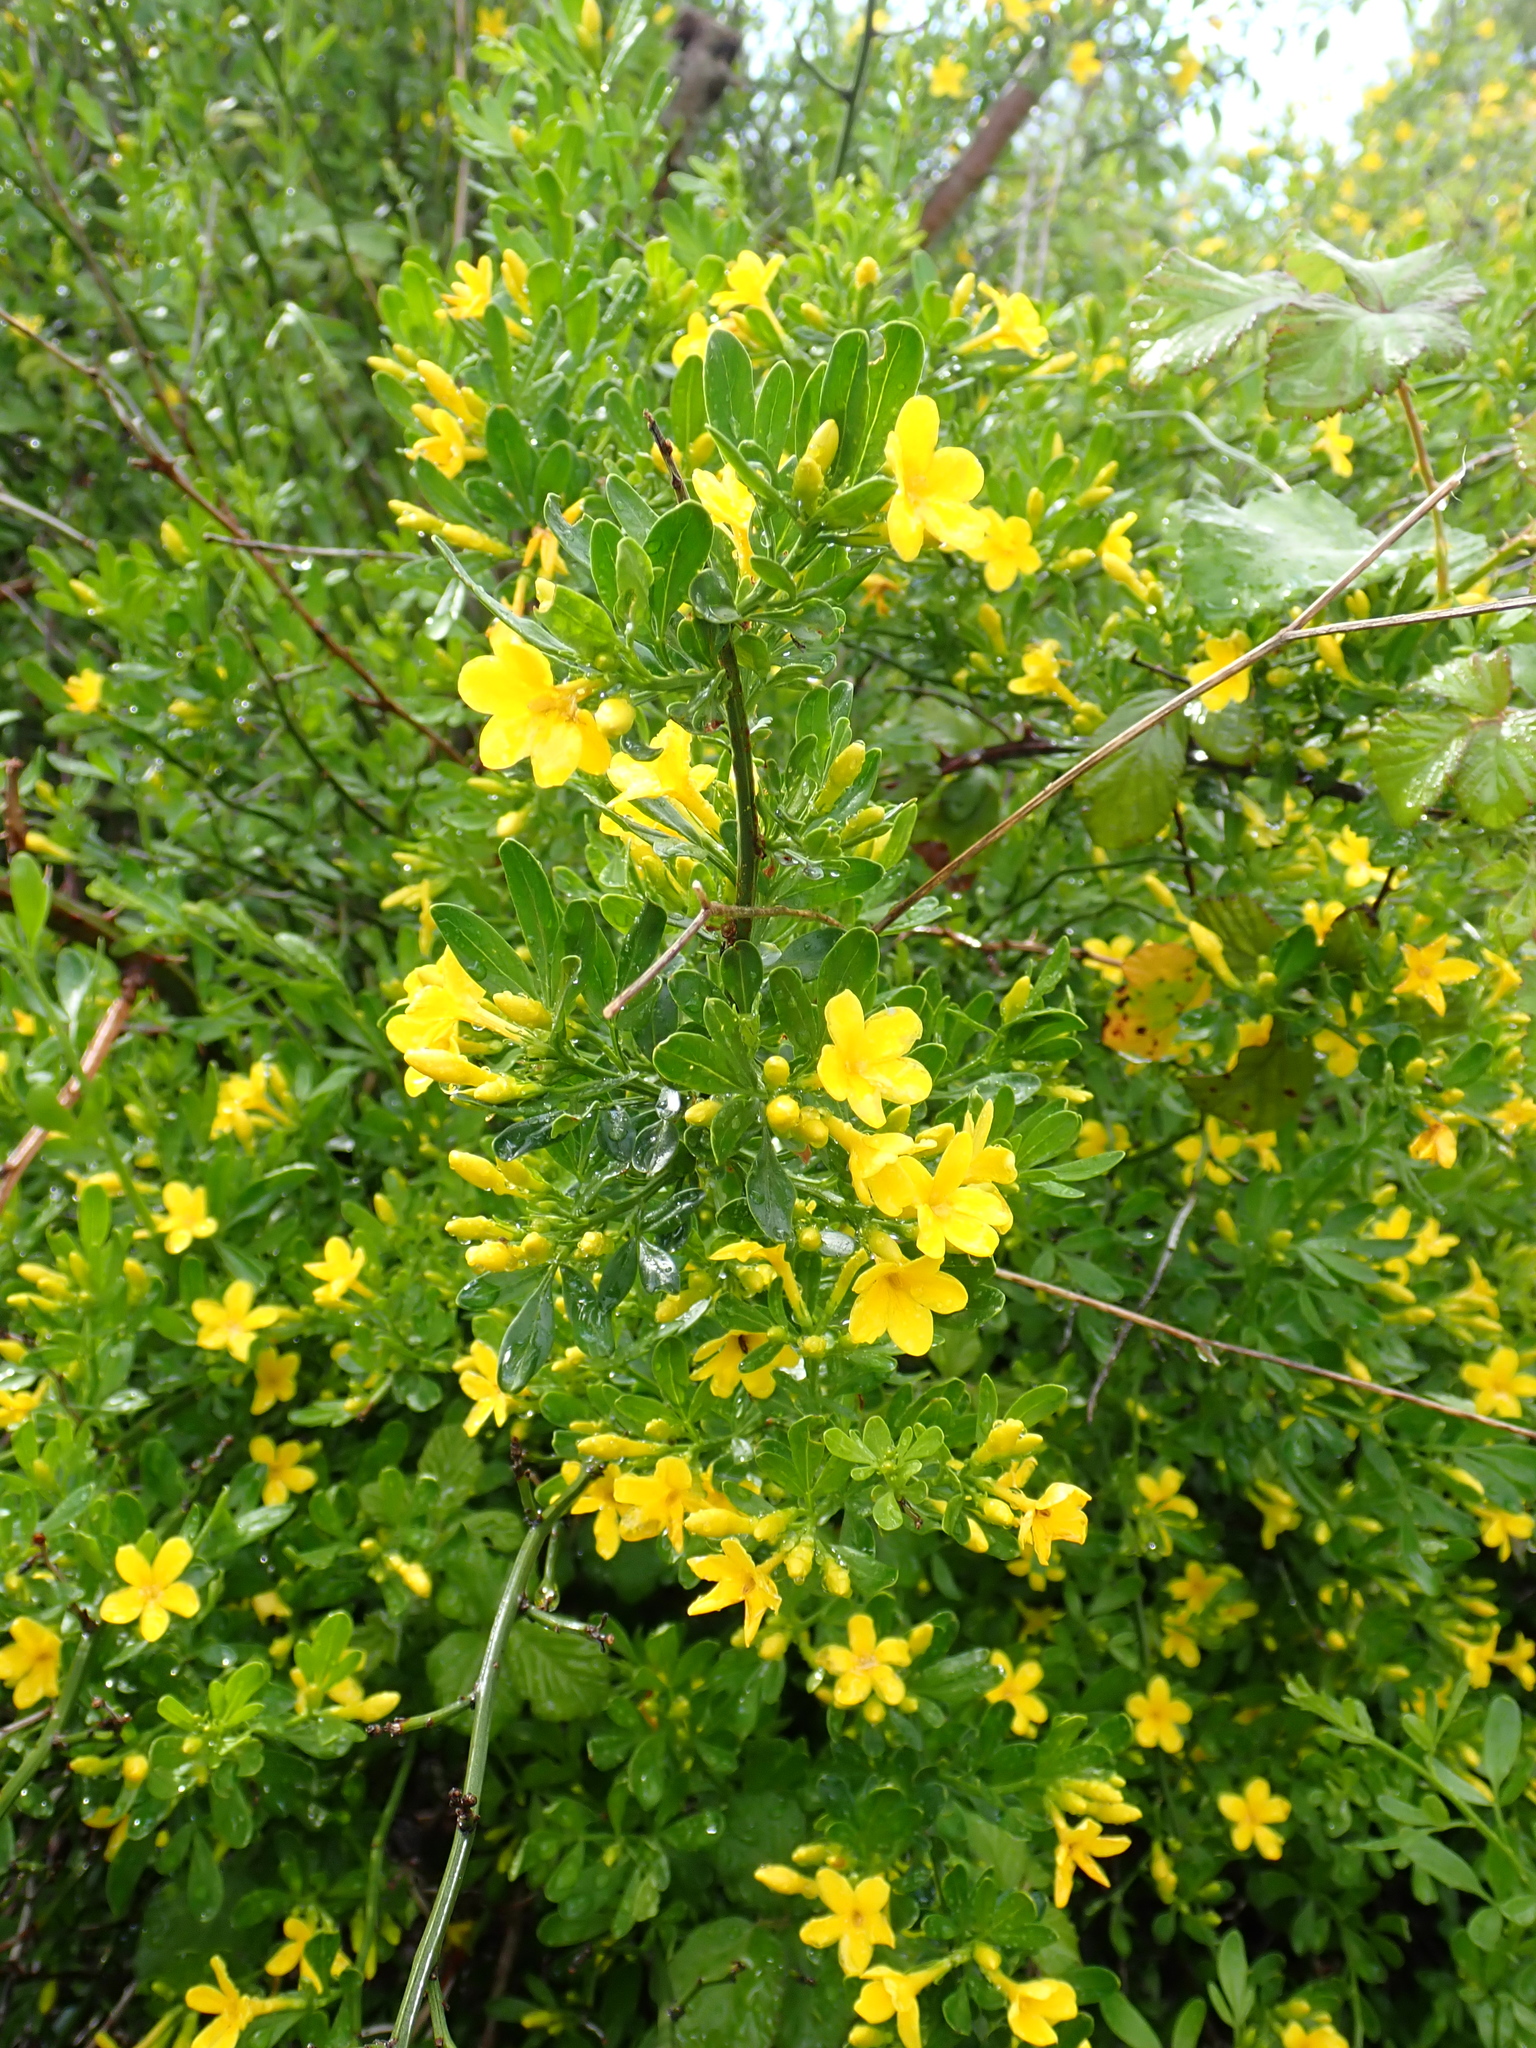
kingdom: Plantae
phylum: Tracheophyta
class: Magnoliopsida
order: Lamiales
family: Oleaceae
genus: Chrysojasminum
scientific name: Chrysojasminum fruticans
